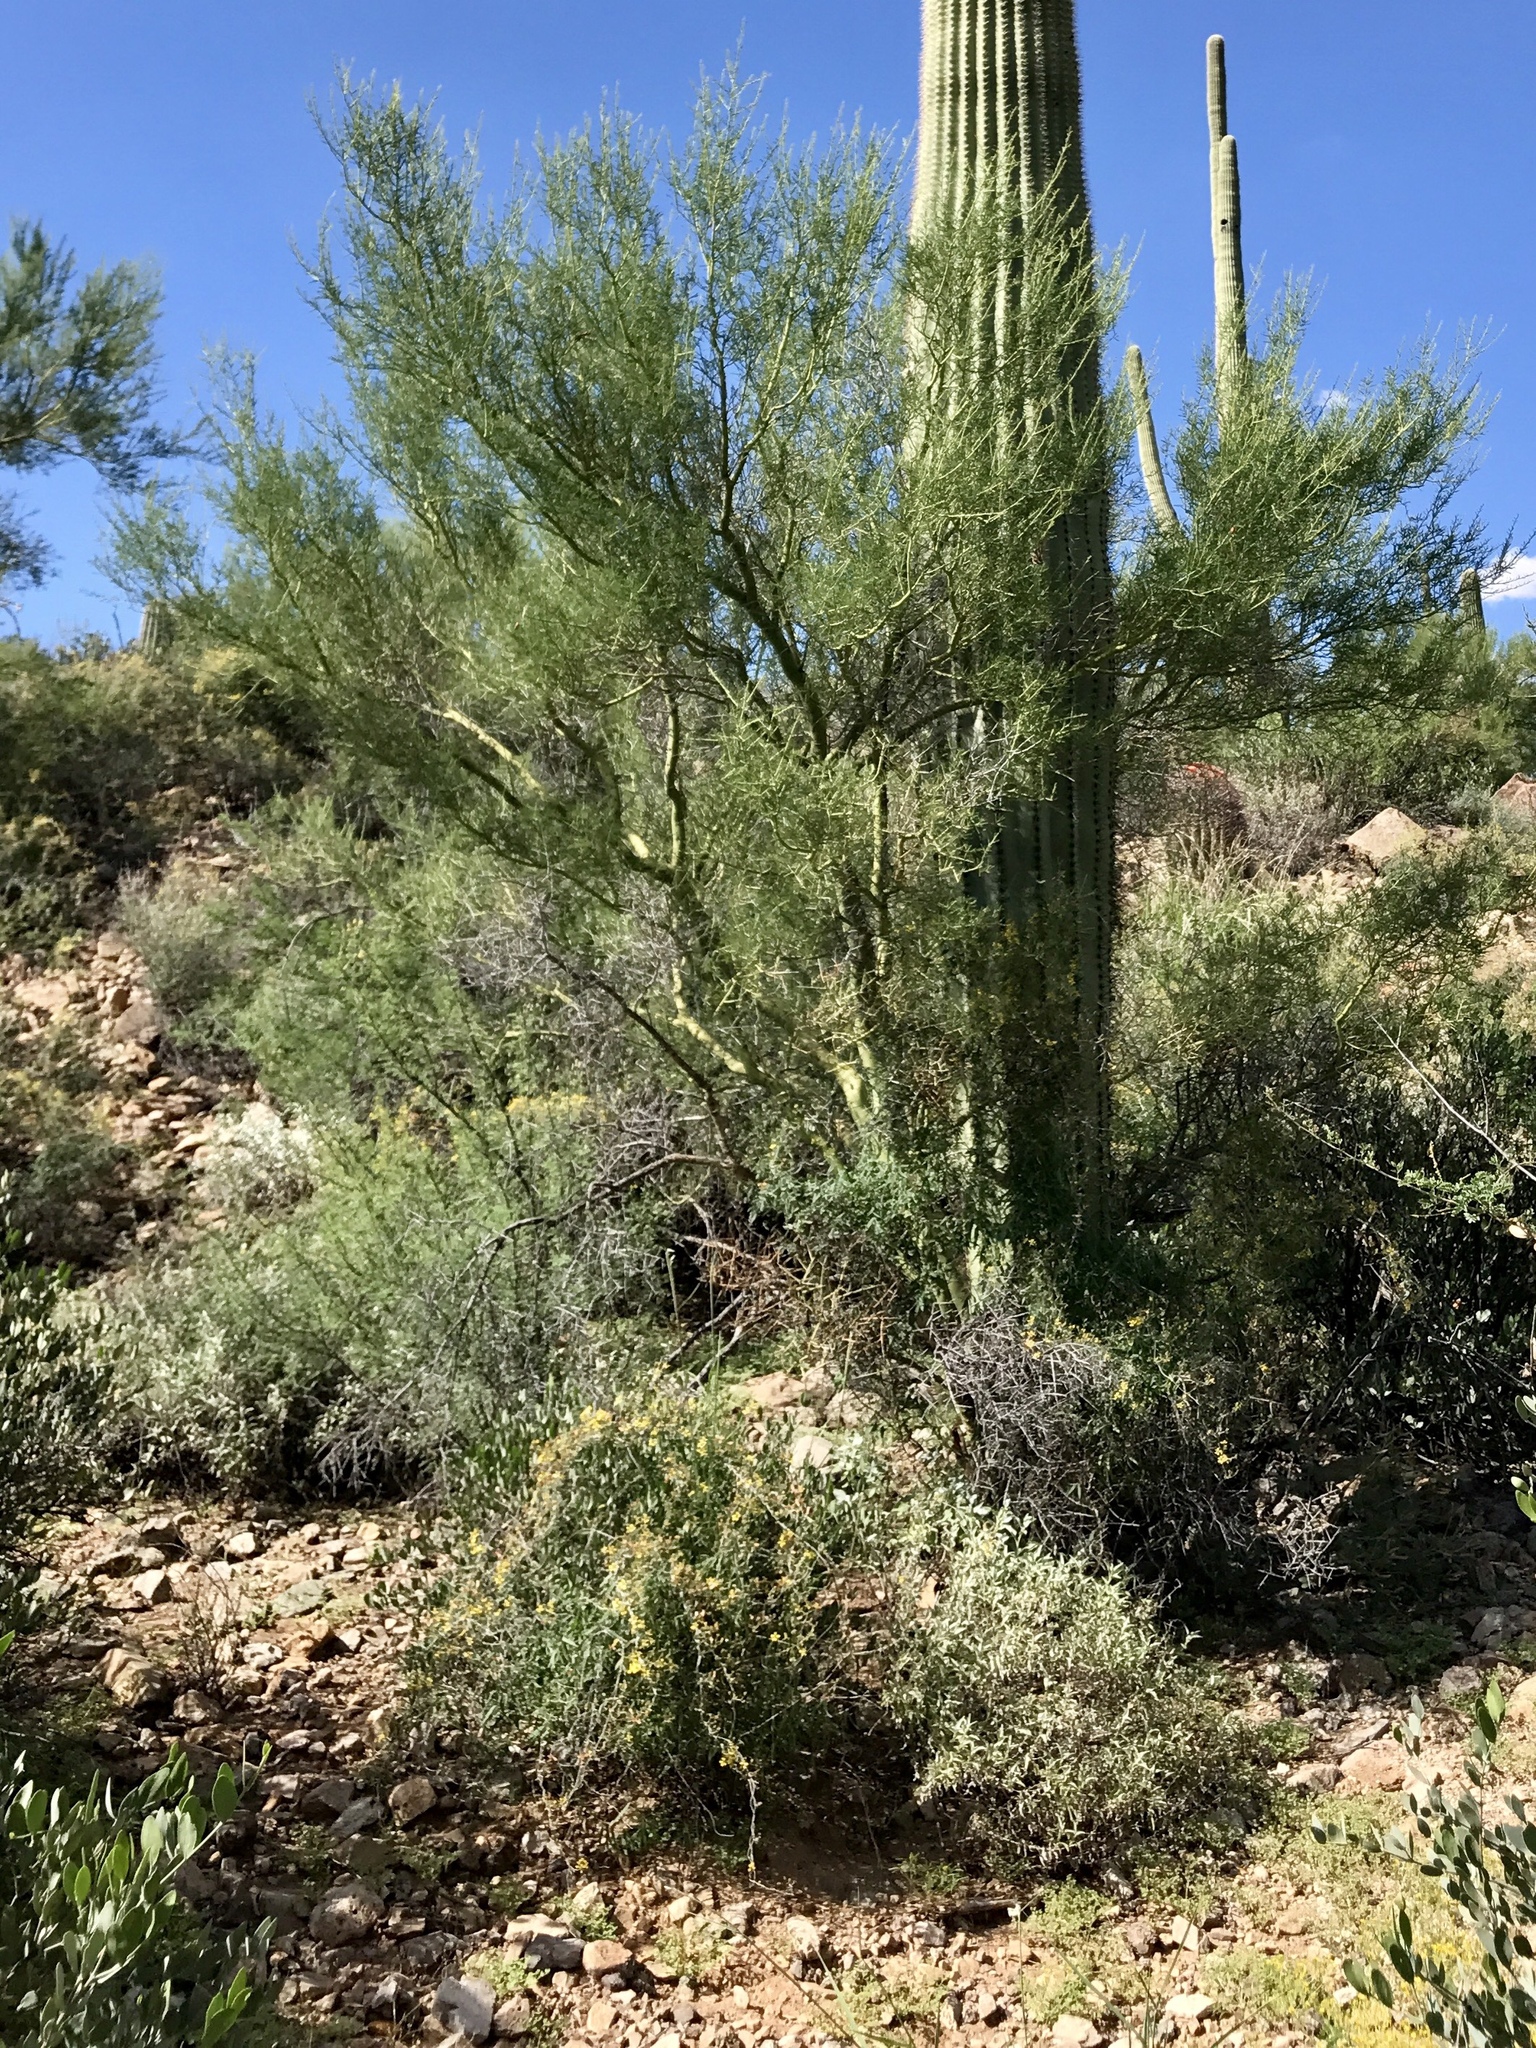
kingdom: Plantae
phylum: Tracheophyta
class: Magnoliopsida
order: Fabales
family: Fabaceae
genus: Parkinsonia
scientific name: Parkinsonia microphylla
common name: Yellow paloverde
